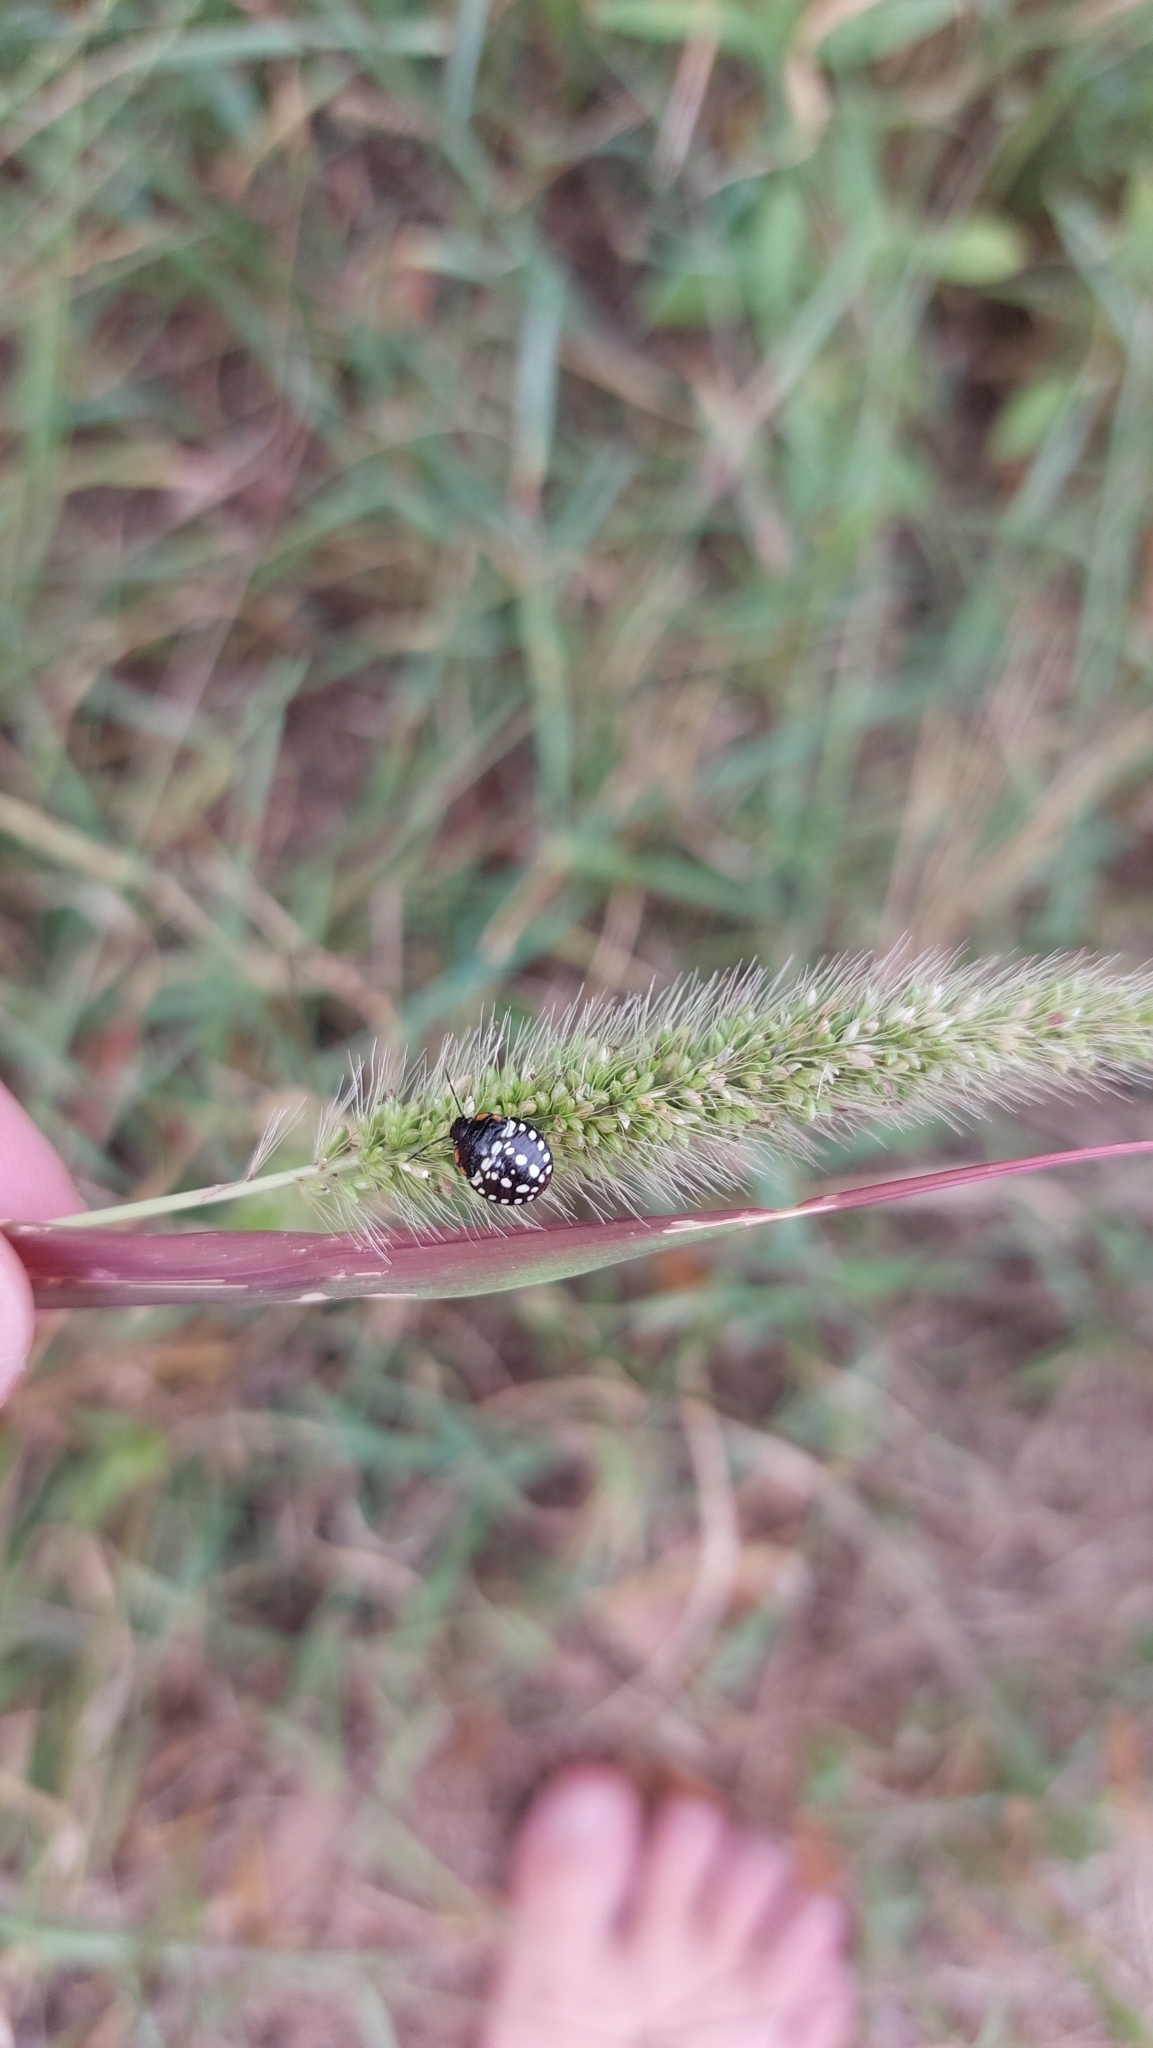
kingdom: Animalia
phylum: Arthropoda
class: Insecta
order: Hemiptera
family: Pentatomidae
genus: Nezara
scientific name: Nezara viridula
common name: Southern green stink bug
